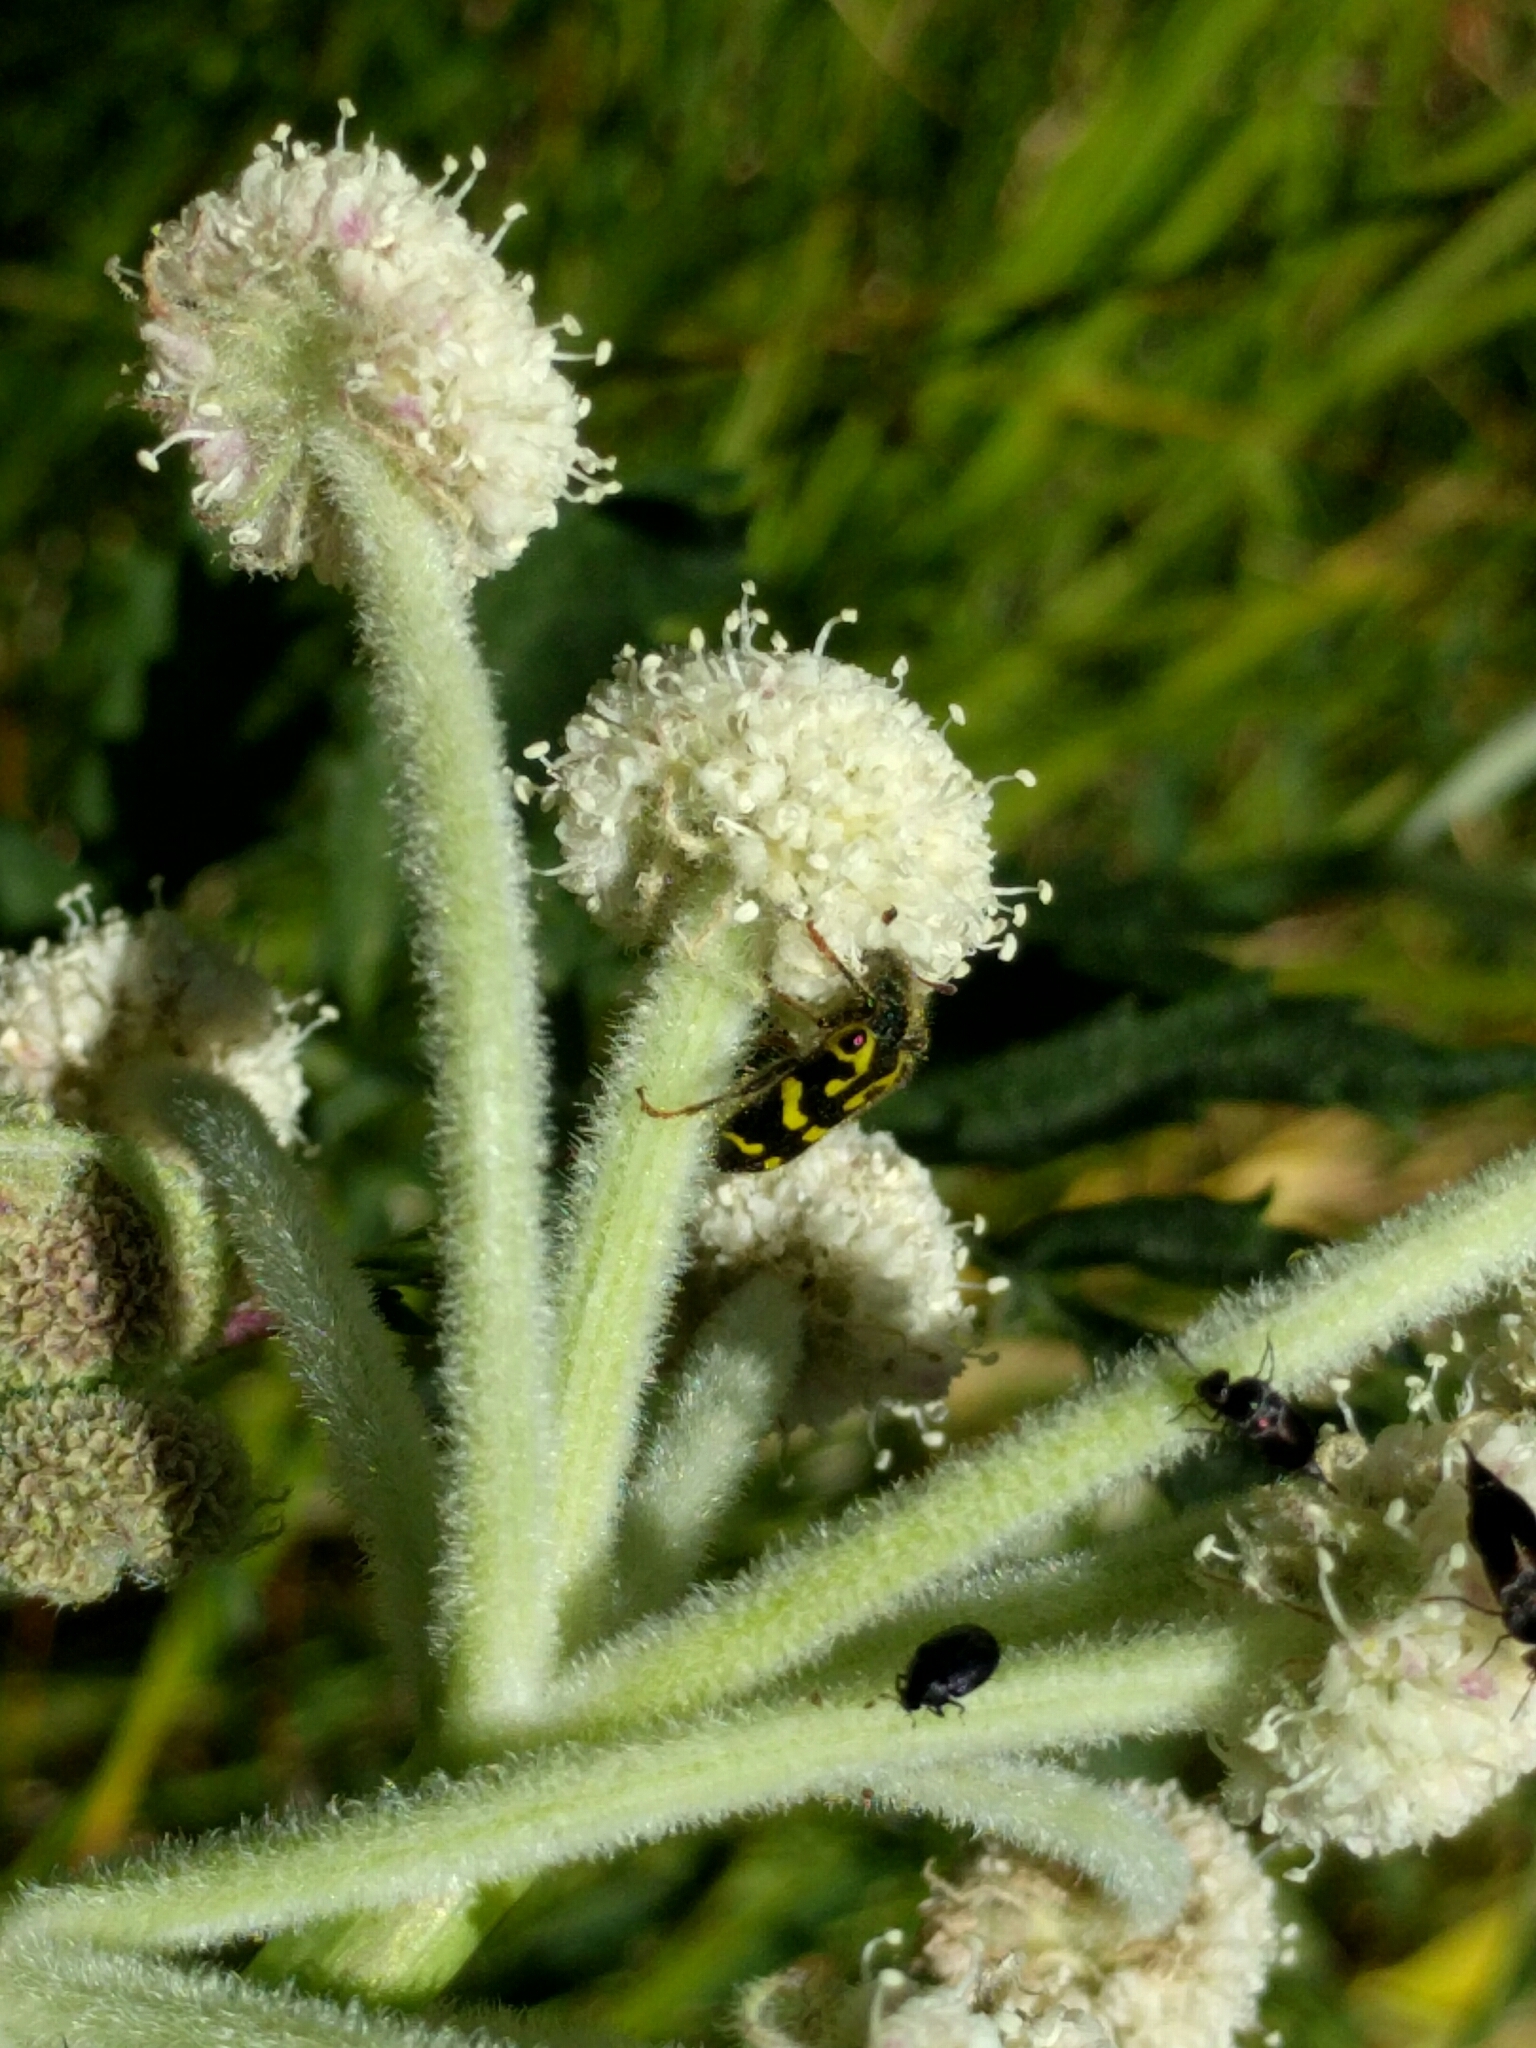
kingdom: Animalia
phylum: Arthropoda
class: Insecta
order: Coleoptera
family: Cleridae
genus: Trichodes
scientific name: Trichodes ornatus
